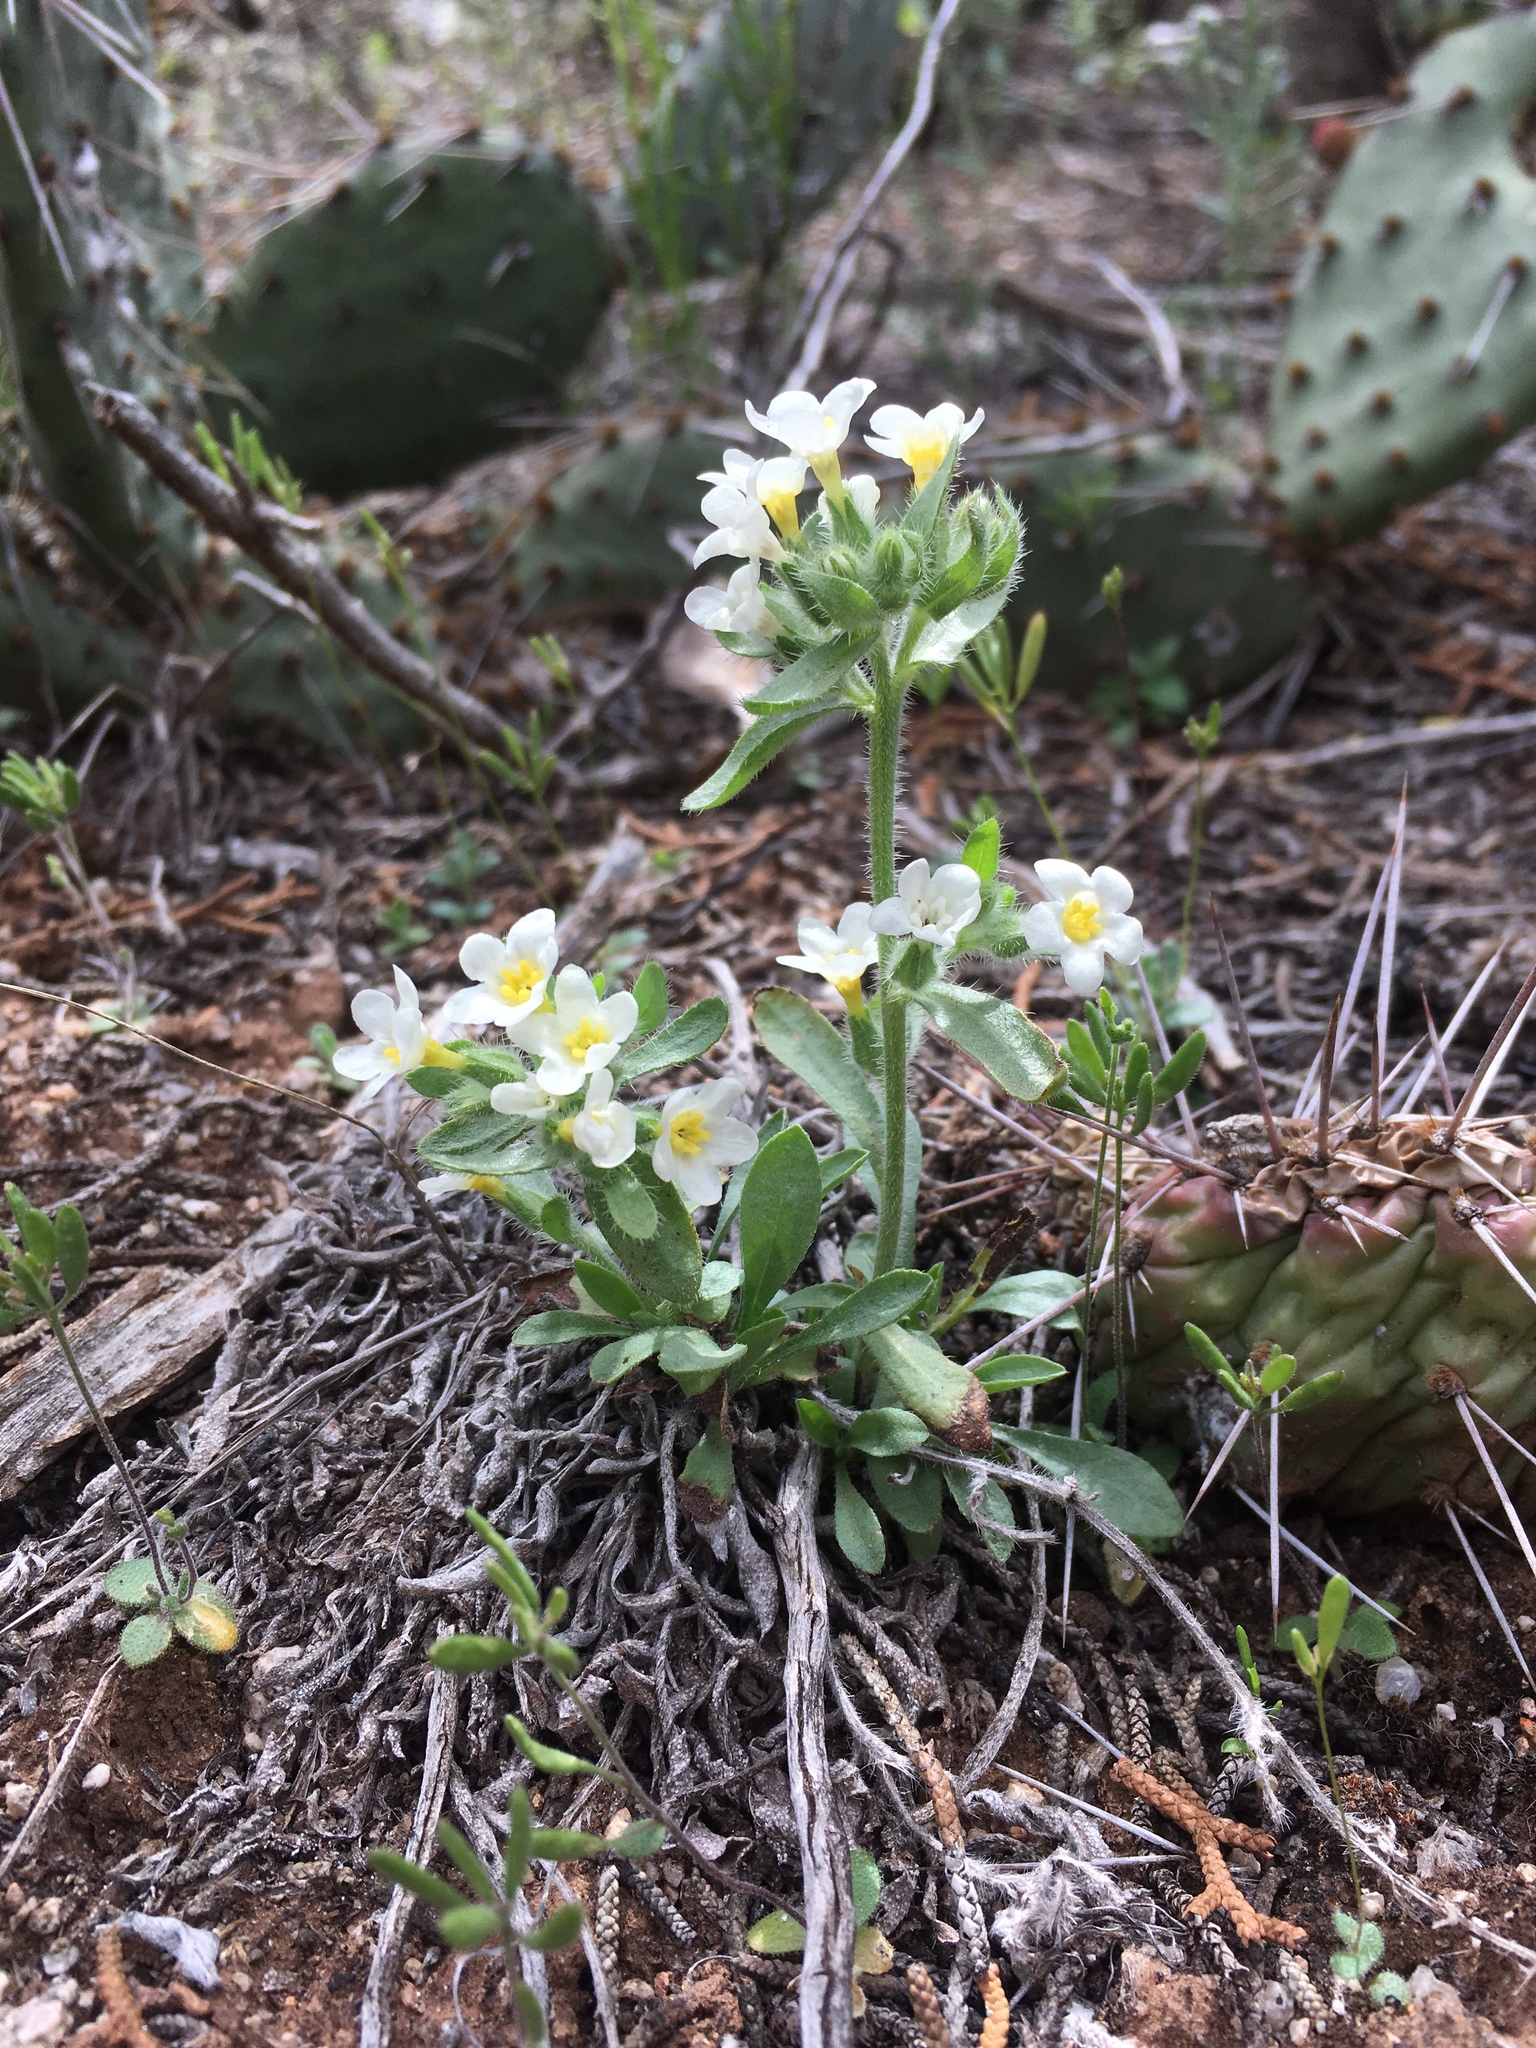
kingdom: Plantae
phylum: Tracheophyta
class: Magnoliopsida
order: Boraginales
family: Boraginaceae
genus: Oreocarya
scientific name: Oreocarya flavoculata
